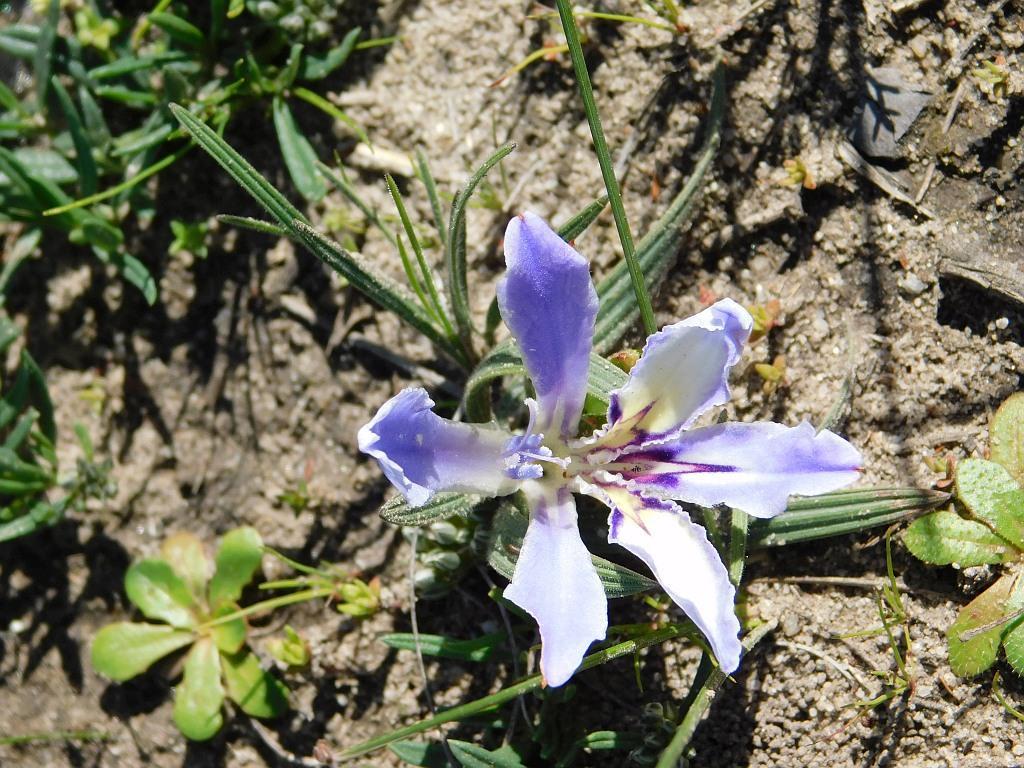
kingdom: Plantae
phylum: Tracheophyta
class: Liliopsida
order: Asparagales
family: Iridaceae
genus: Babiana
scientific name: Babiana ambigua
